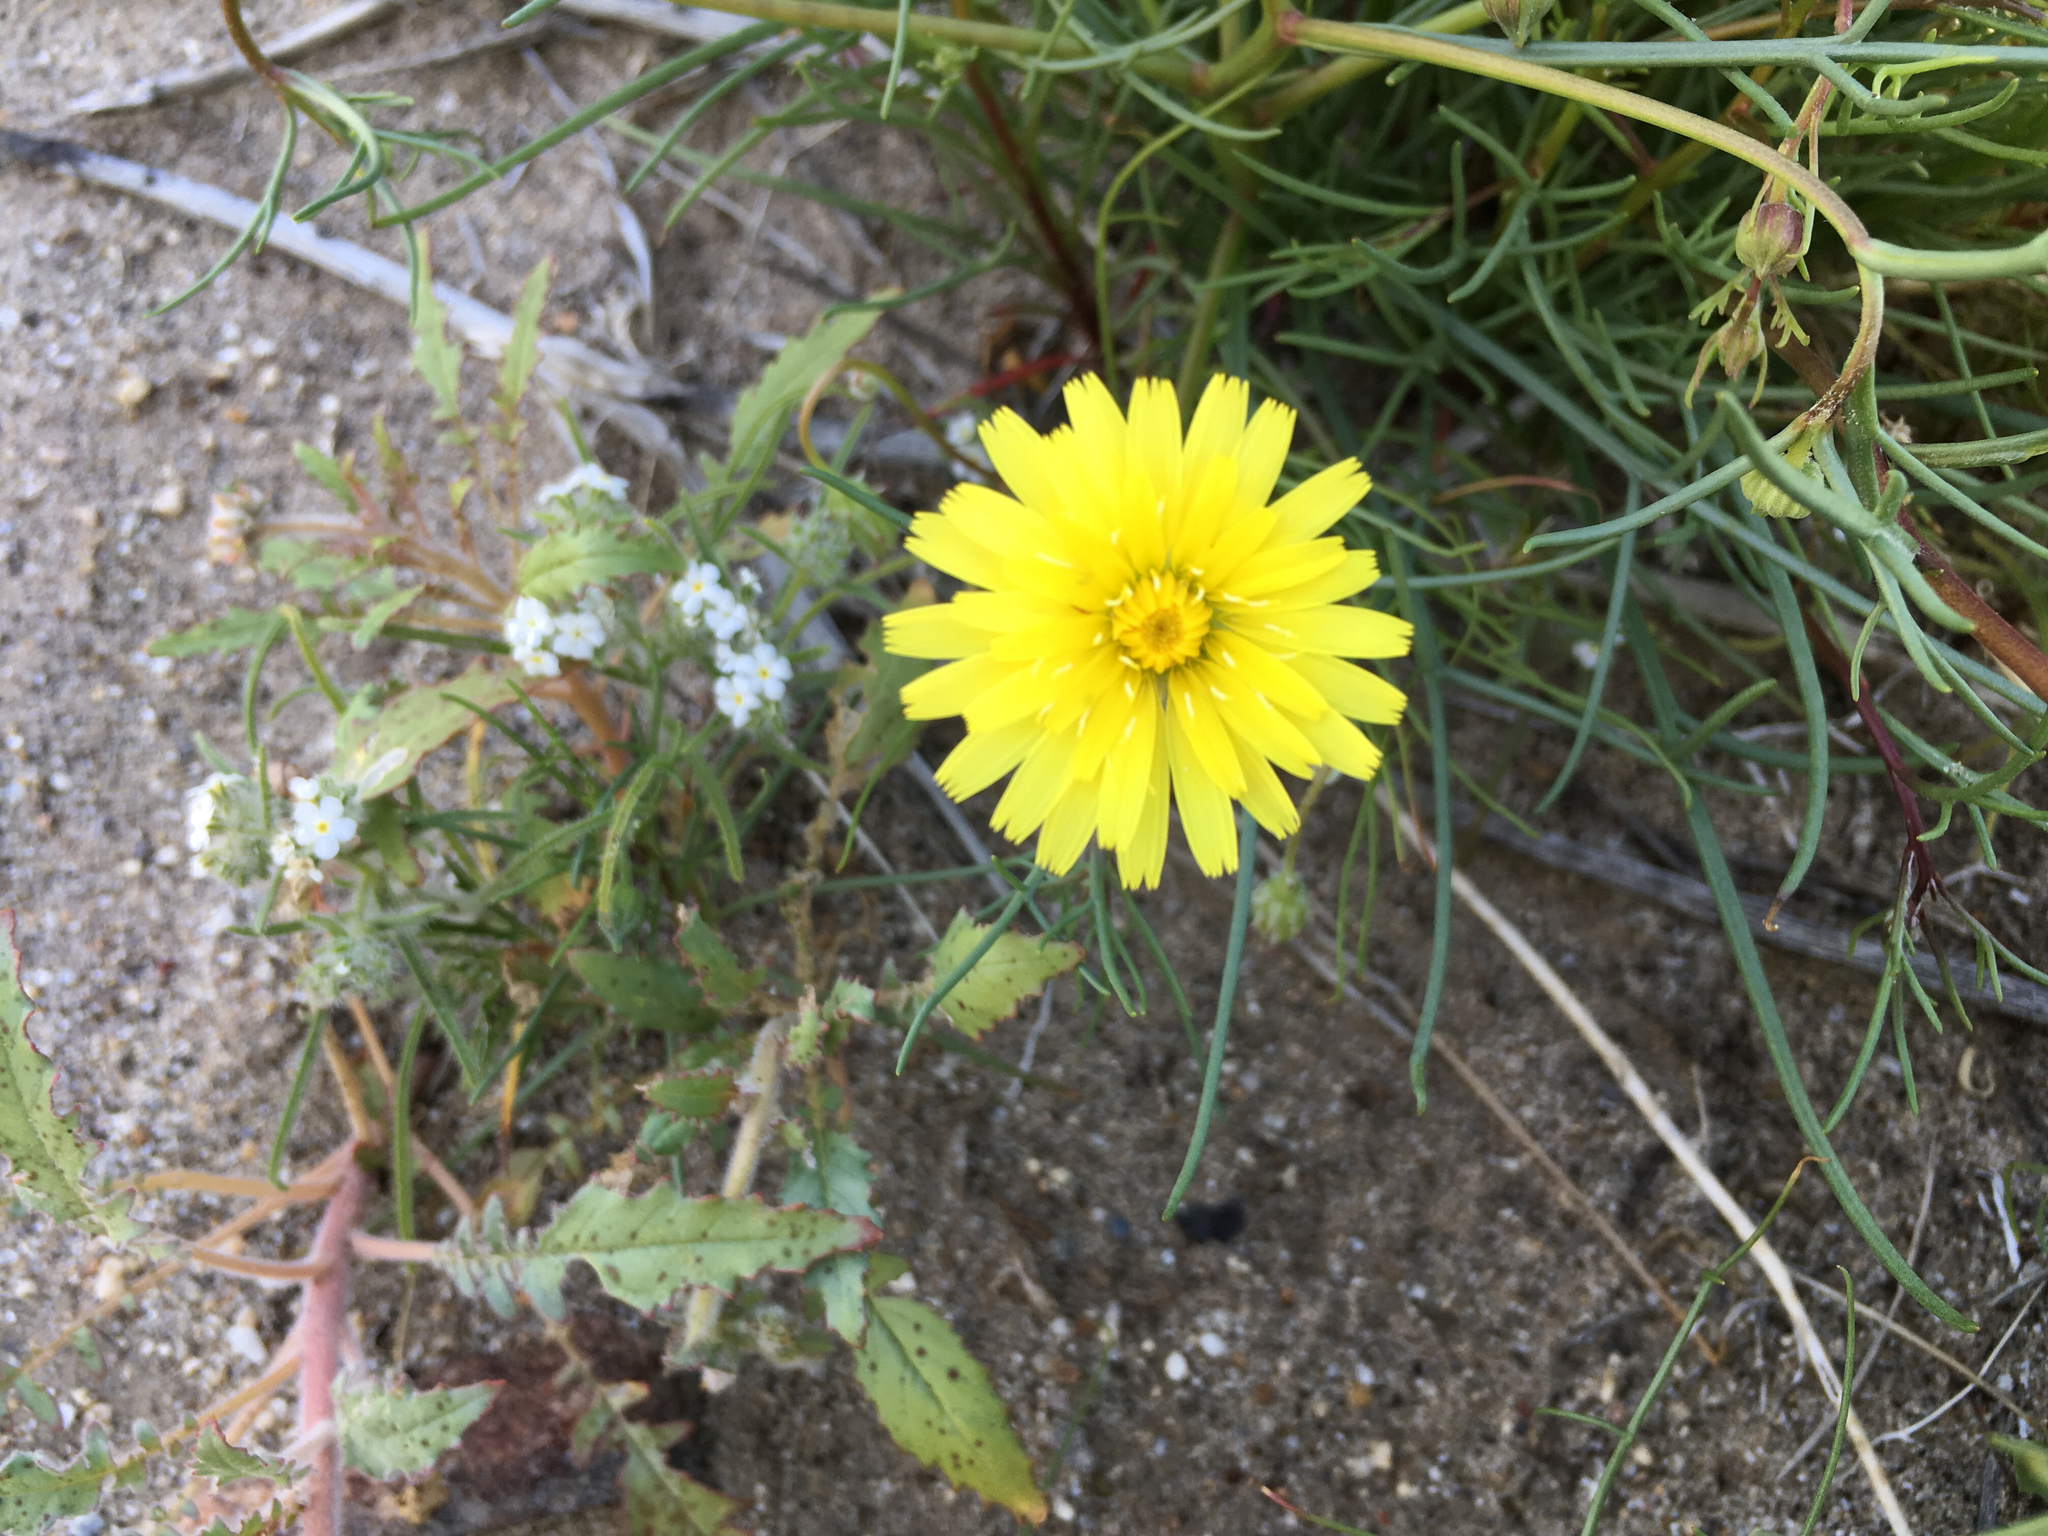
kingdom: Plantae
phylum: Tracheophyta
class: Magnoliopsida
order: Asterales
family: Asteraceae
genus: Malacothrix
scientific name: Malacothrix glabrata
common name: Smooth desert-dandelion
